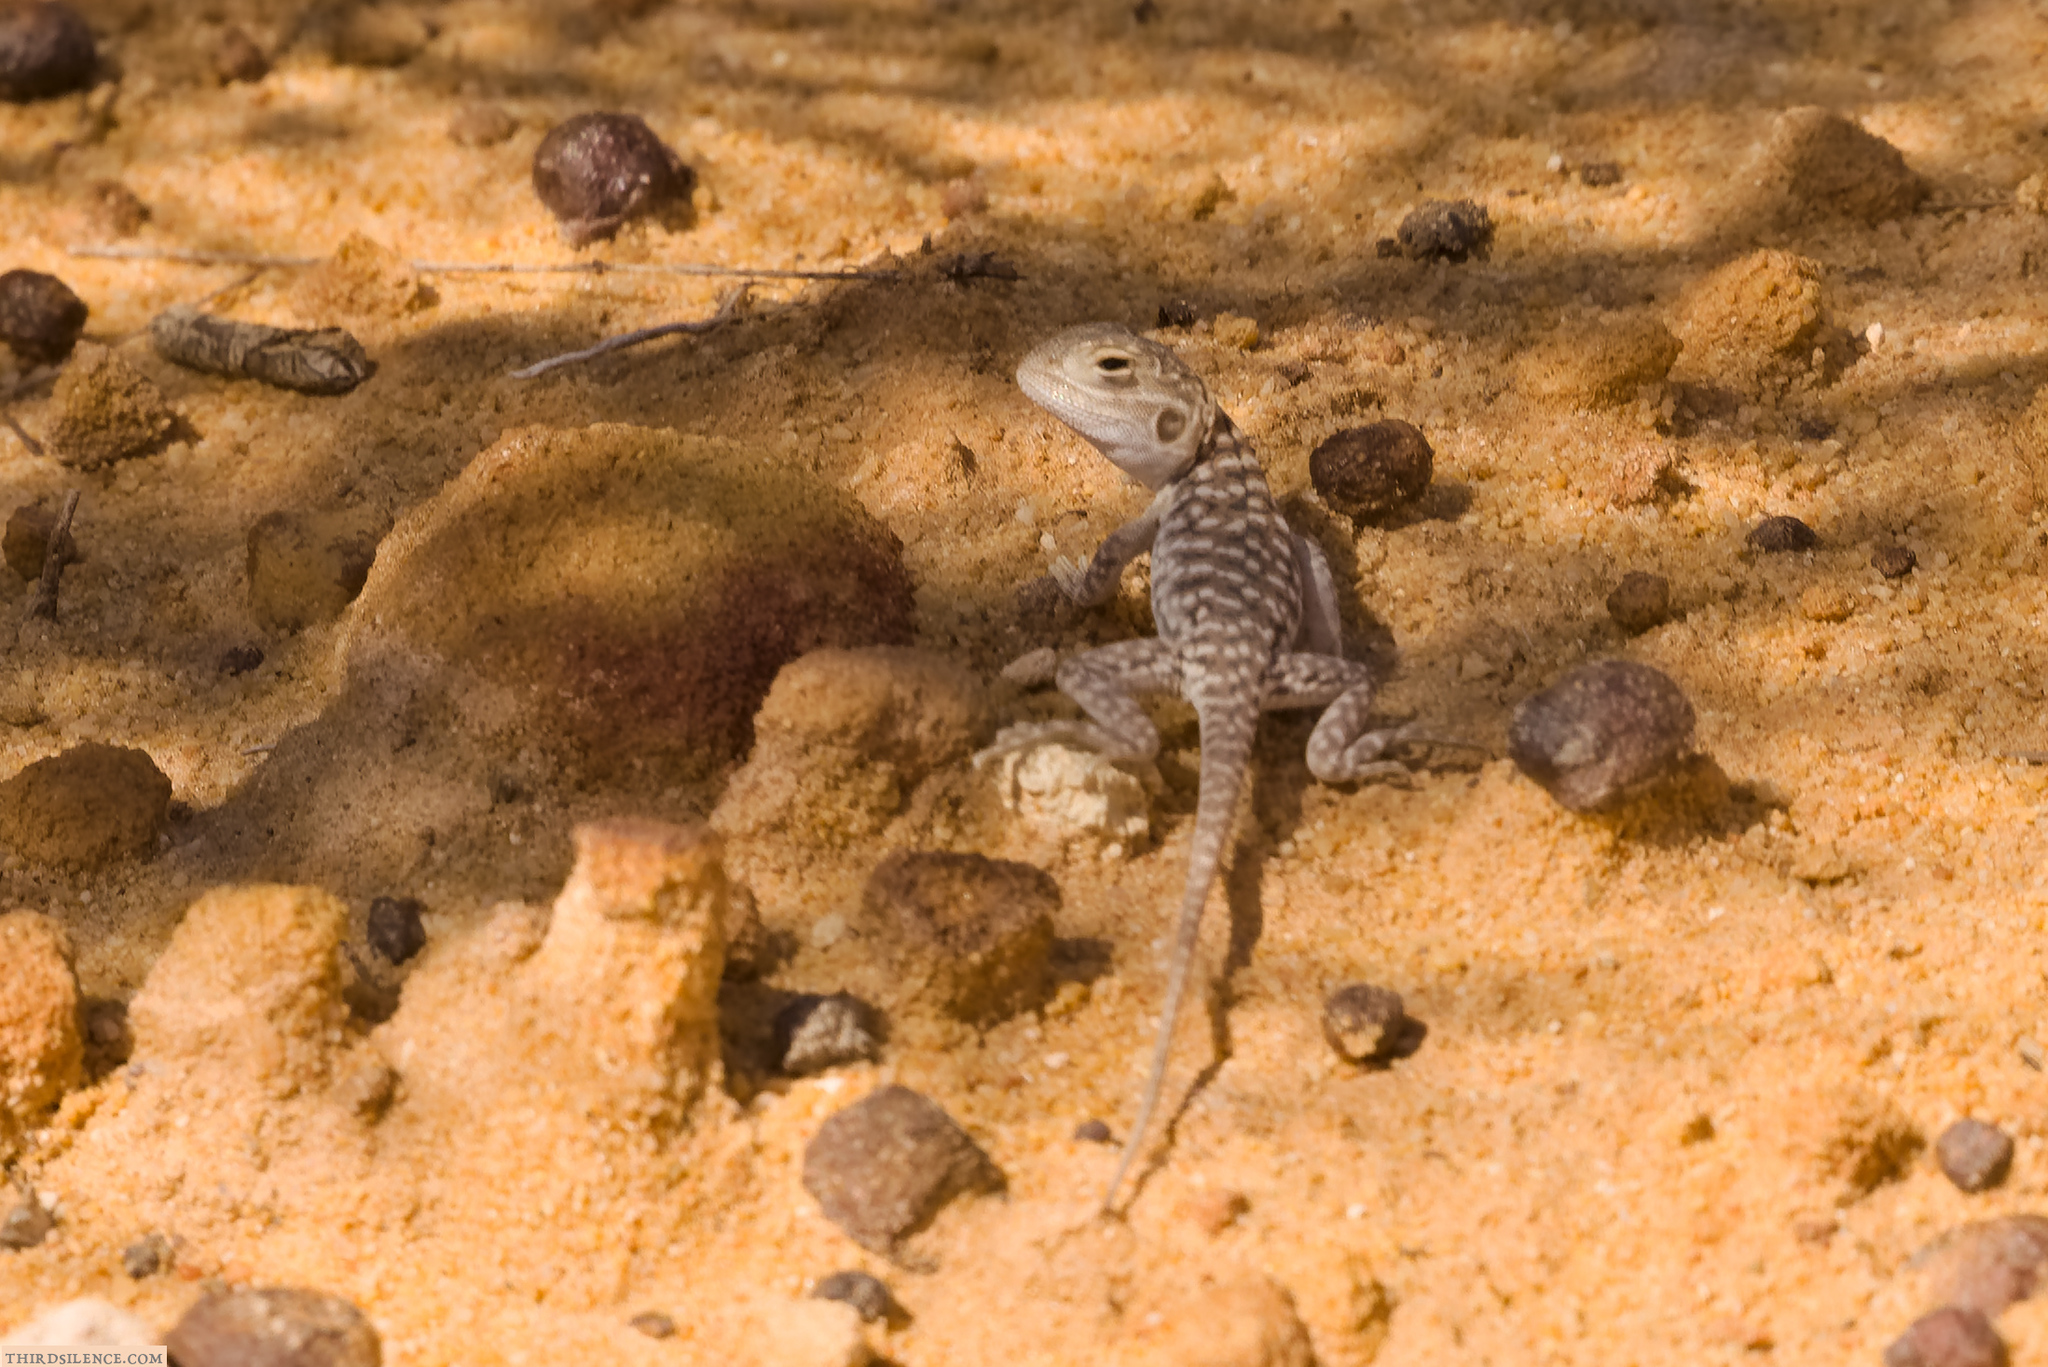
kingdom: Animalia
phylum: Chordata
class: Squamata
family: Agamidae
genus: Ctenophorus
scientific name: Ctenophorus pictus
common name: Painted dragon
